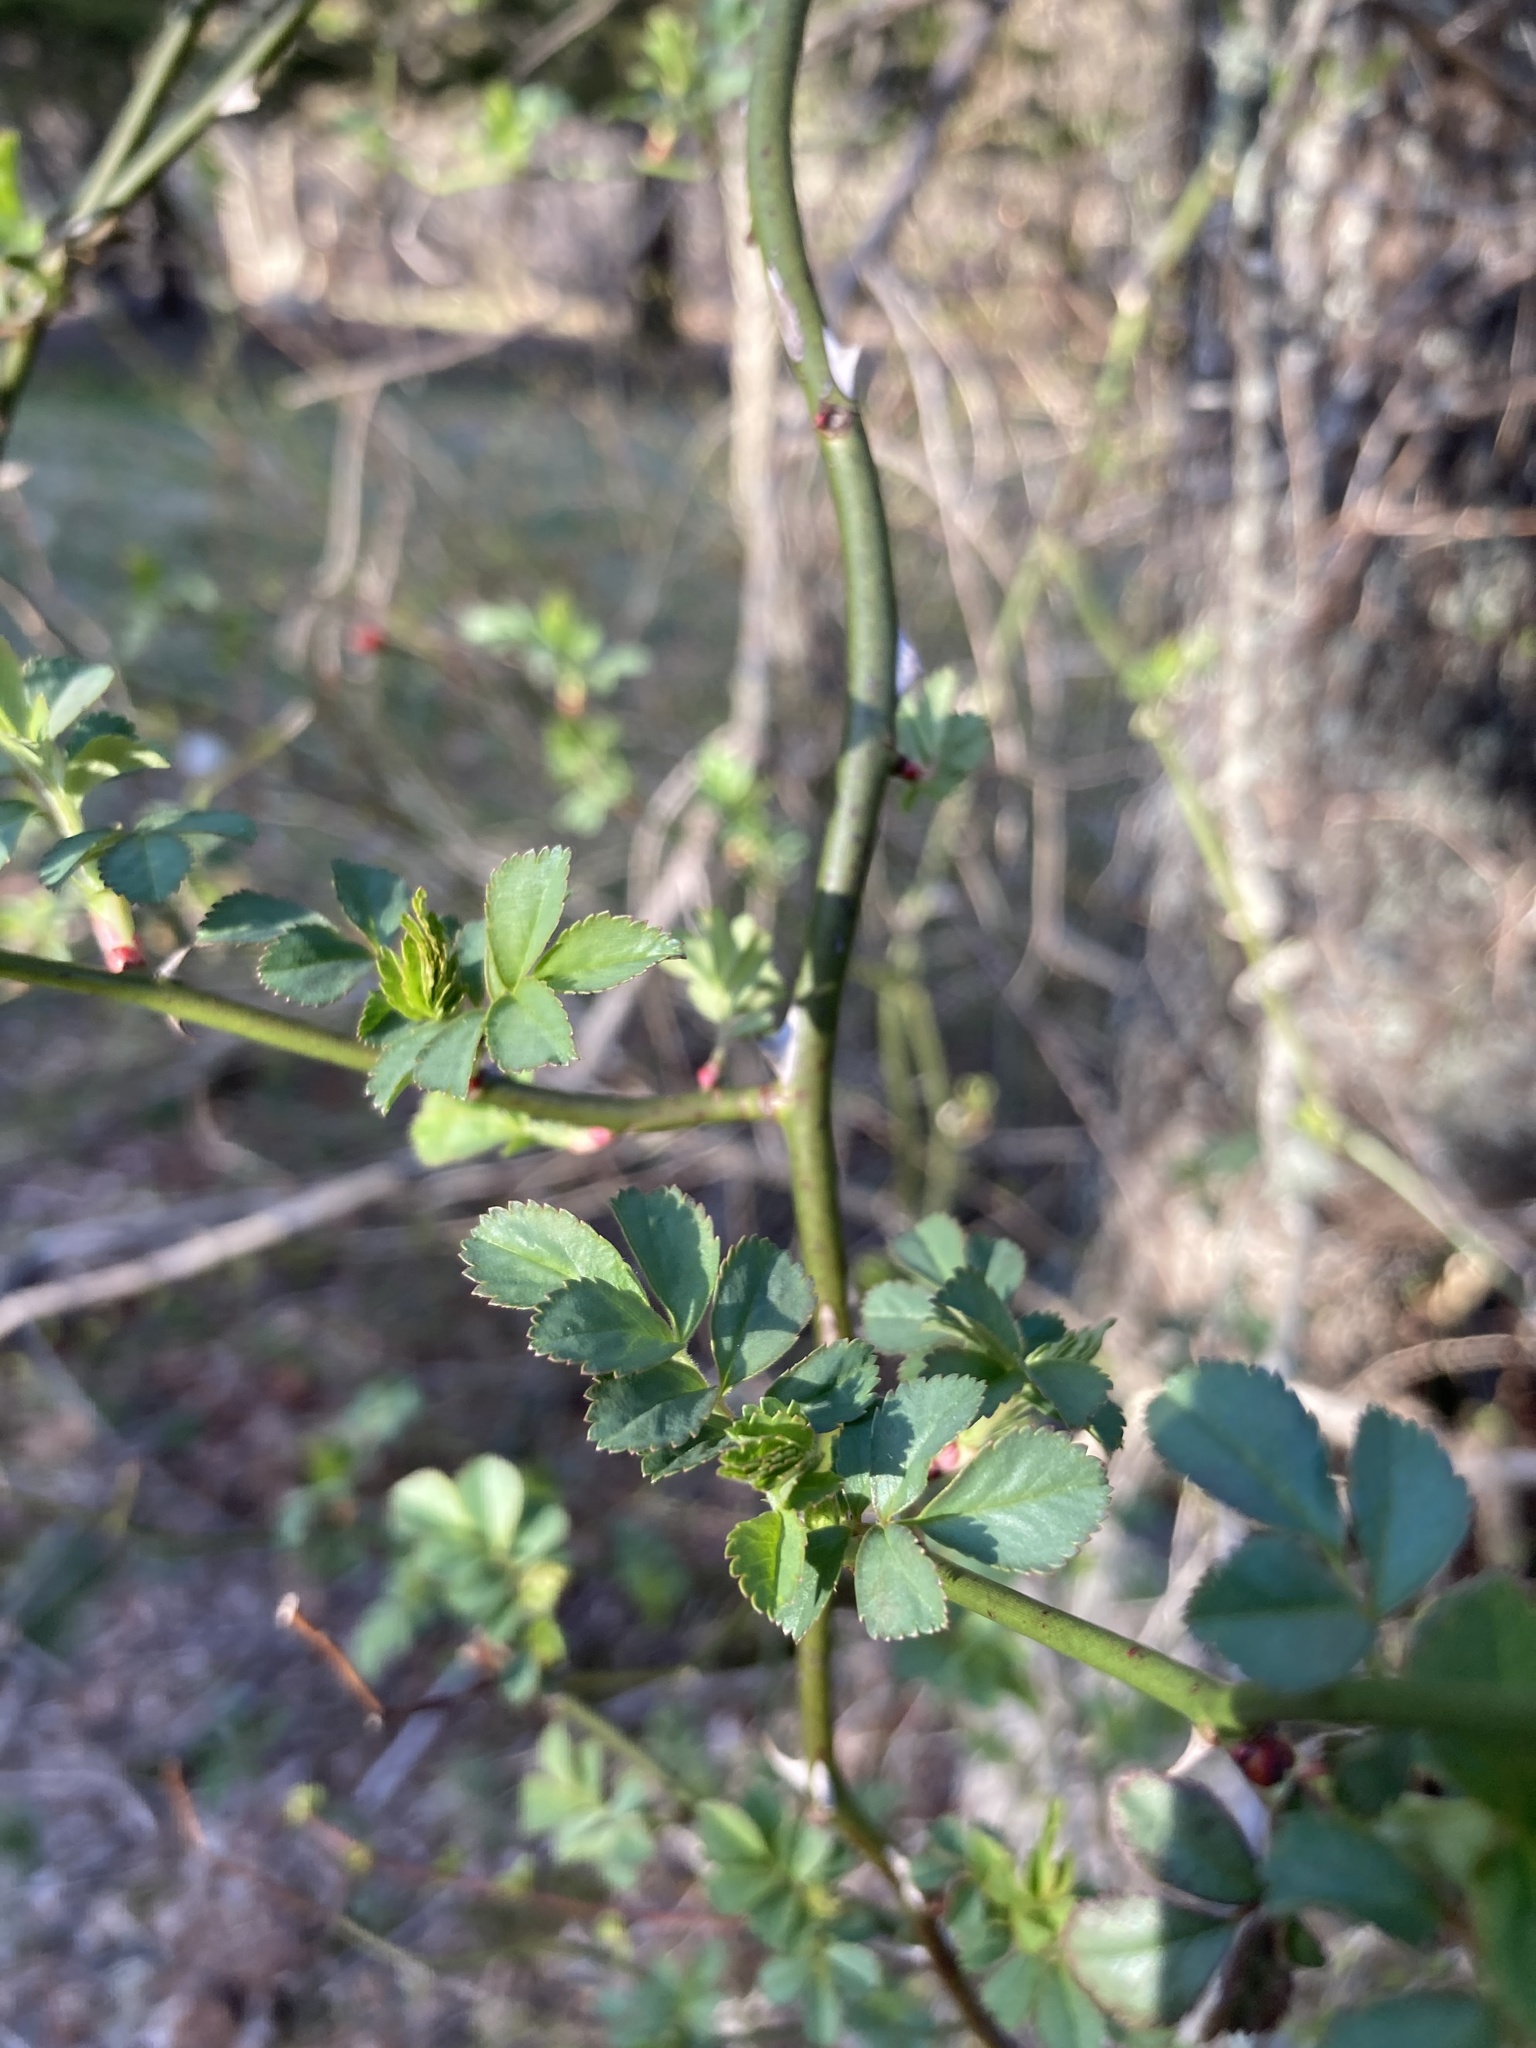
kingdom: Plantae
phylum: Tracheophyta
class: Magnoliopsida
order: Rosales
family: Rosaceae
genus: Rosa
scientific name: Rosa multiflora
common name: Multiflora rose
